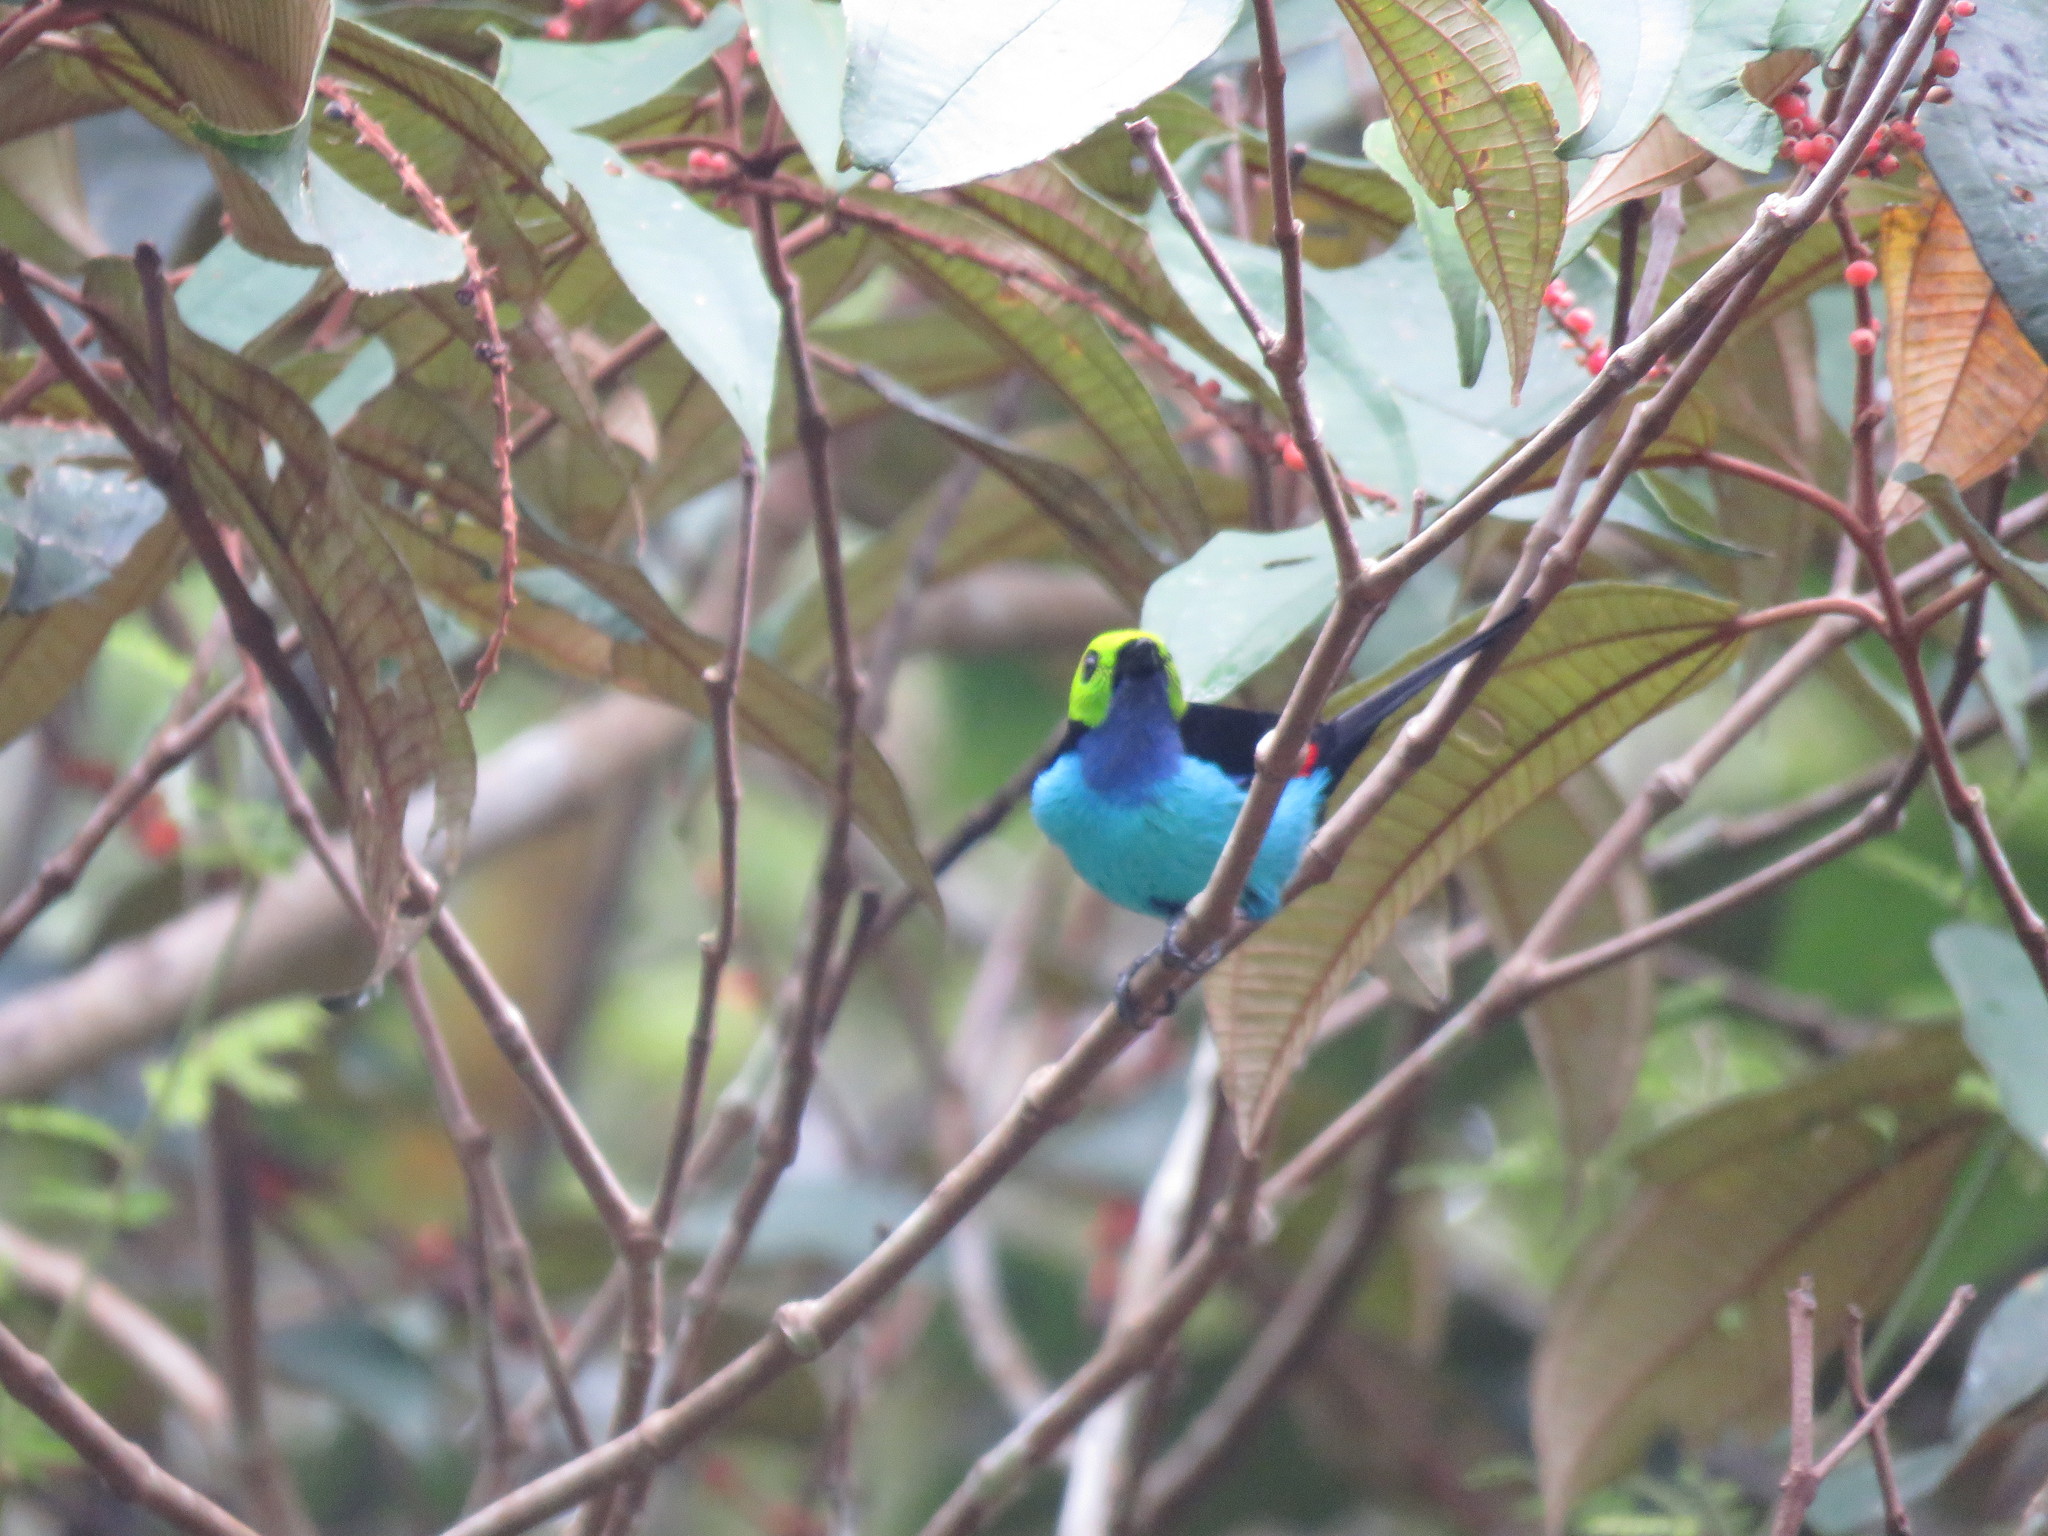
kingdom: Animalia
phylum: Chordata
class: Aves
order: Passeriformes
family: Thraupidae
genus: Tangara
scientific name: Tangara chilensis
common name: Paradise tanager
